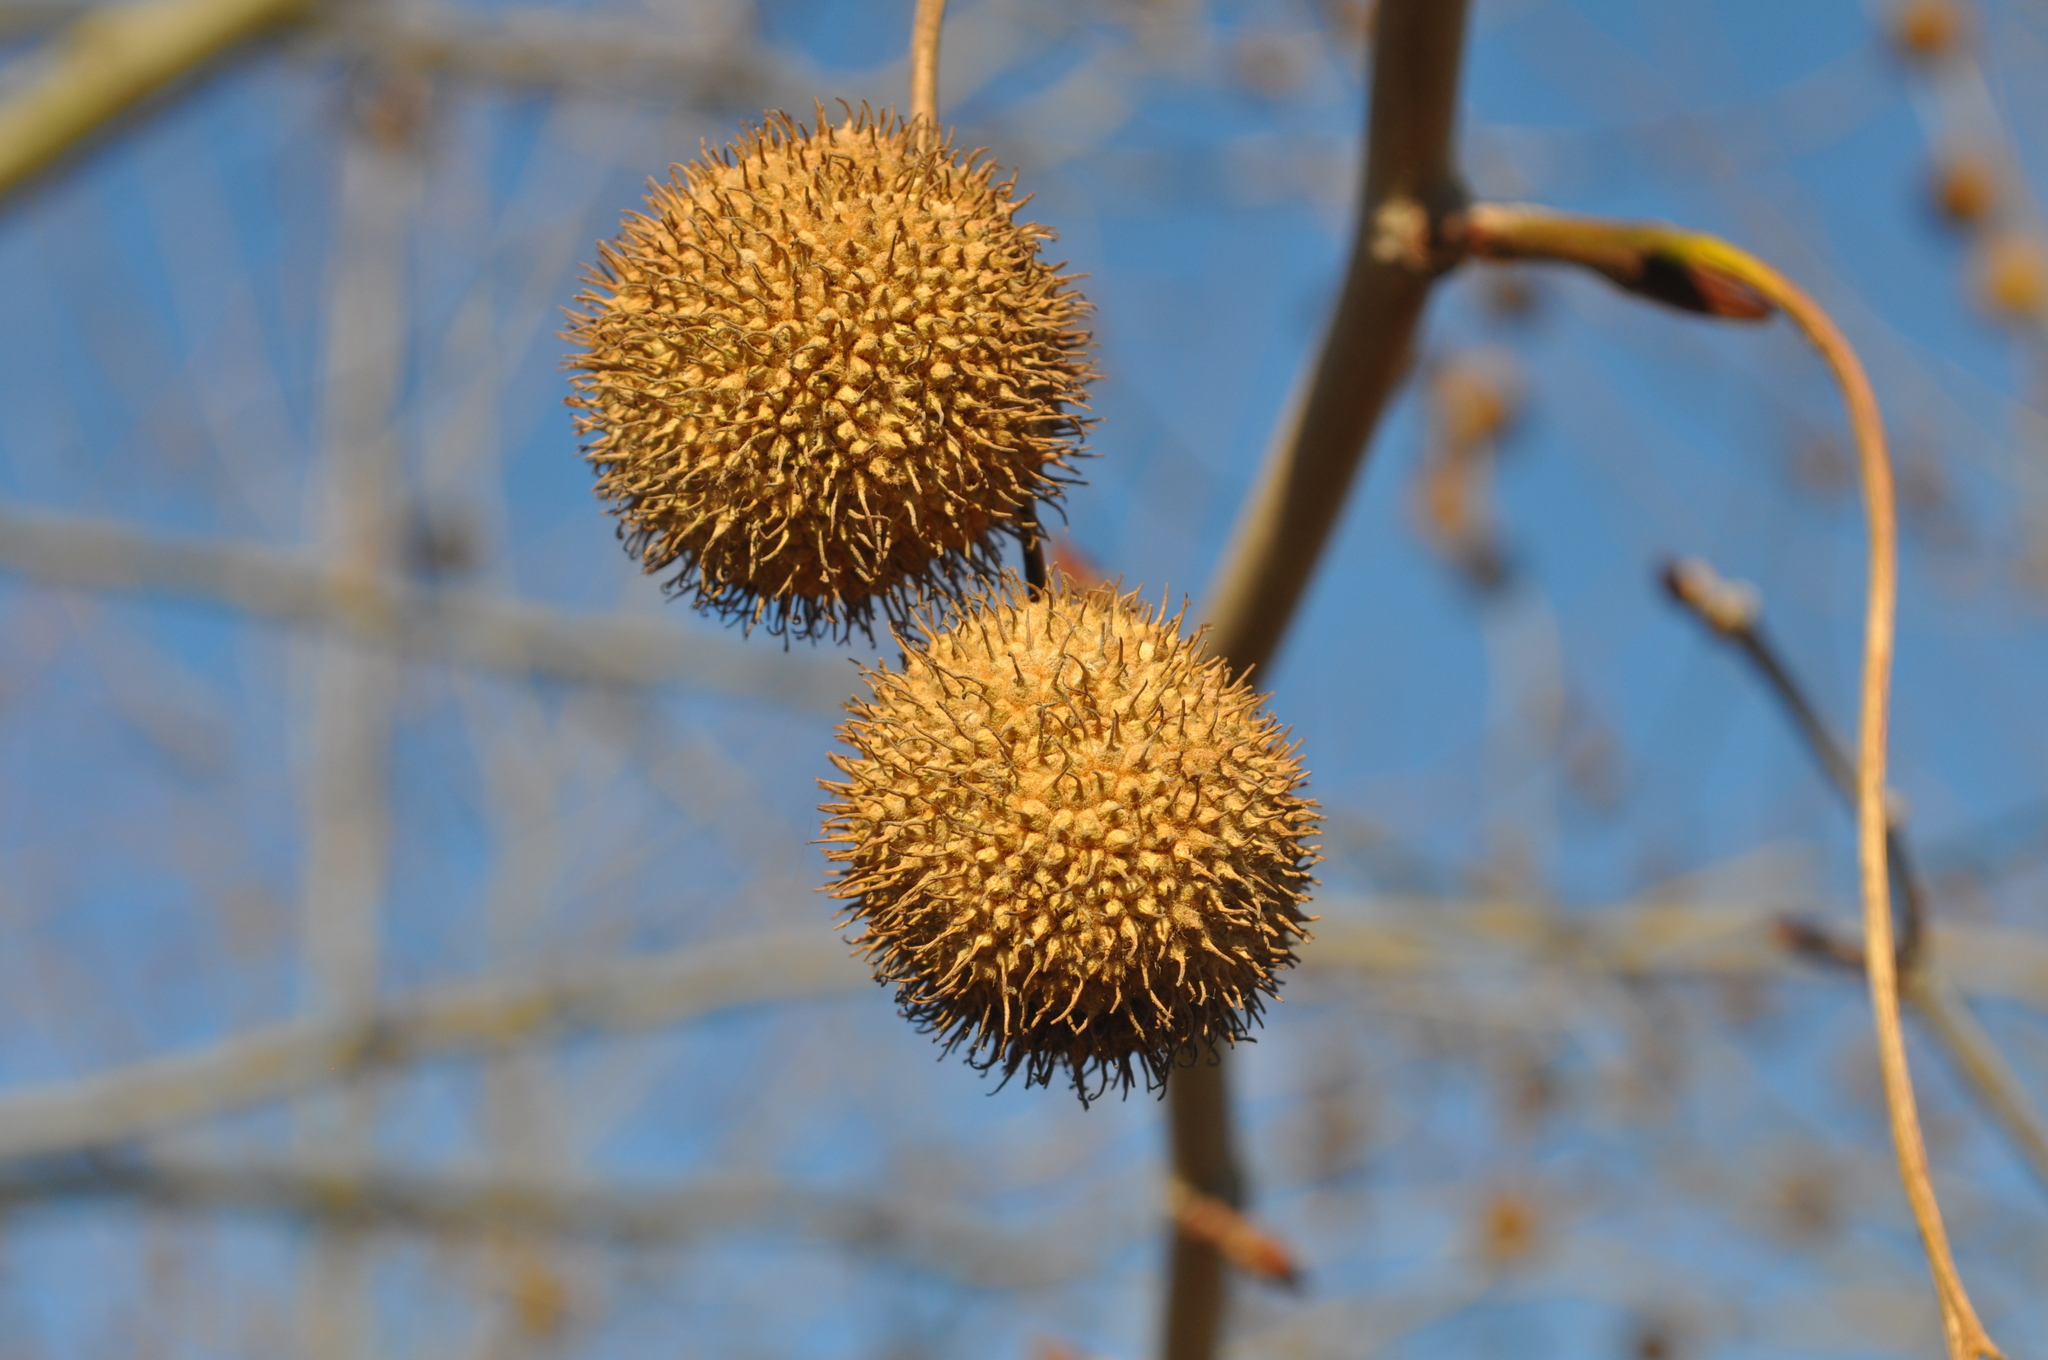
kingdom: Plantae
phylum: Tracheophyta
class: Magnoliopsida
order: Proteales
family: Platanaceae
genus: Platanus
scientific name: Platanus hispanica
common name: London plane
